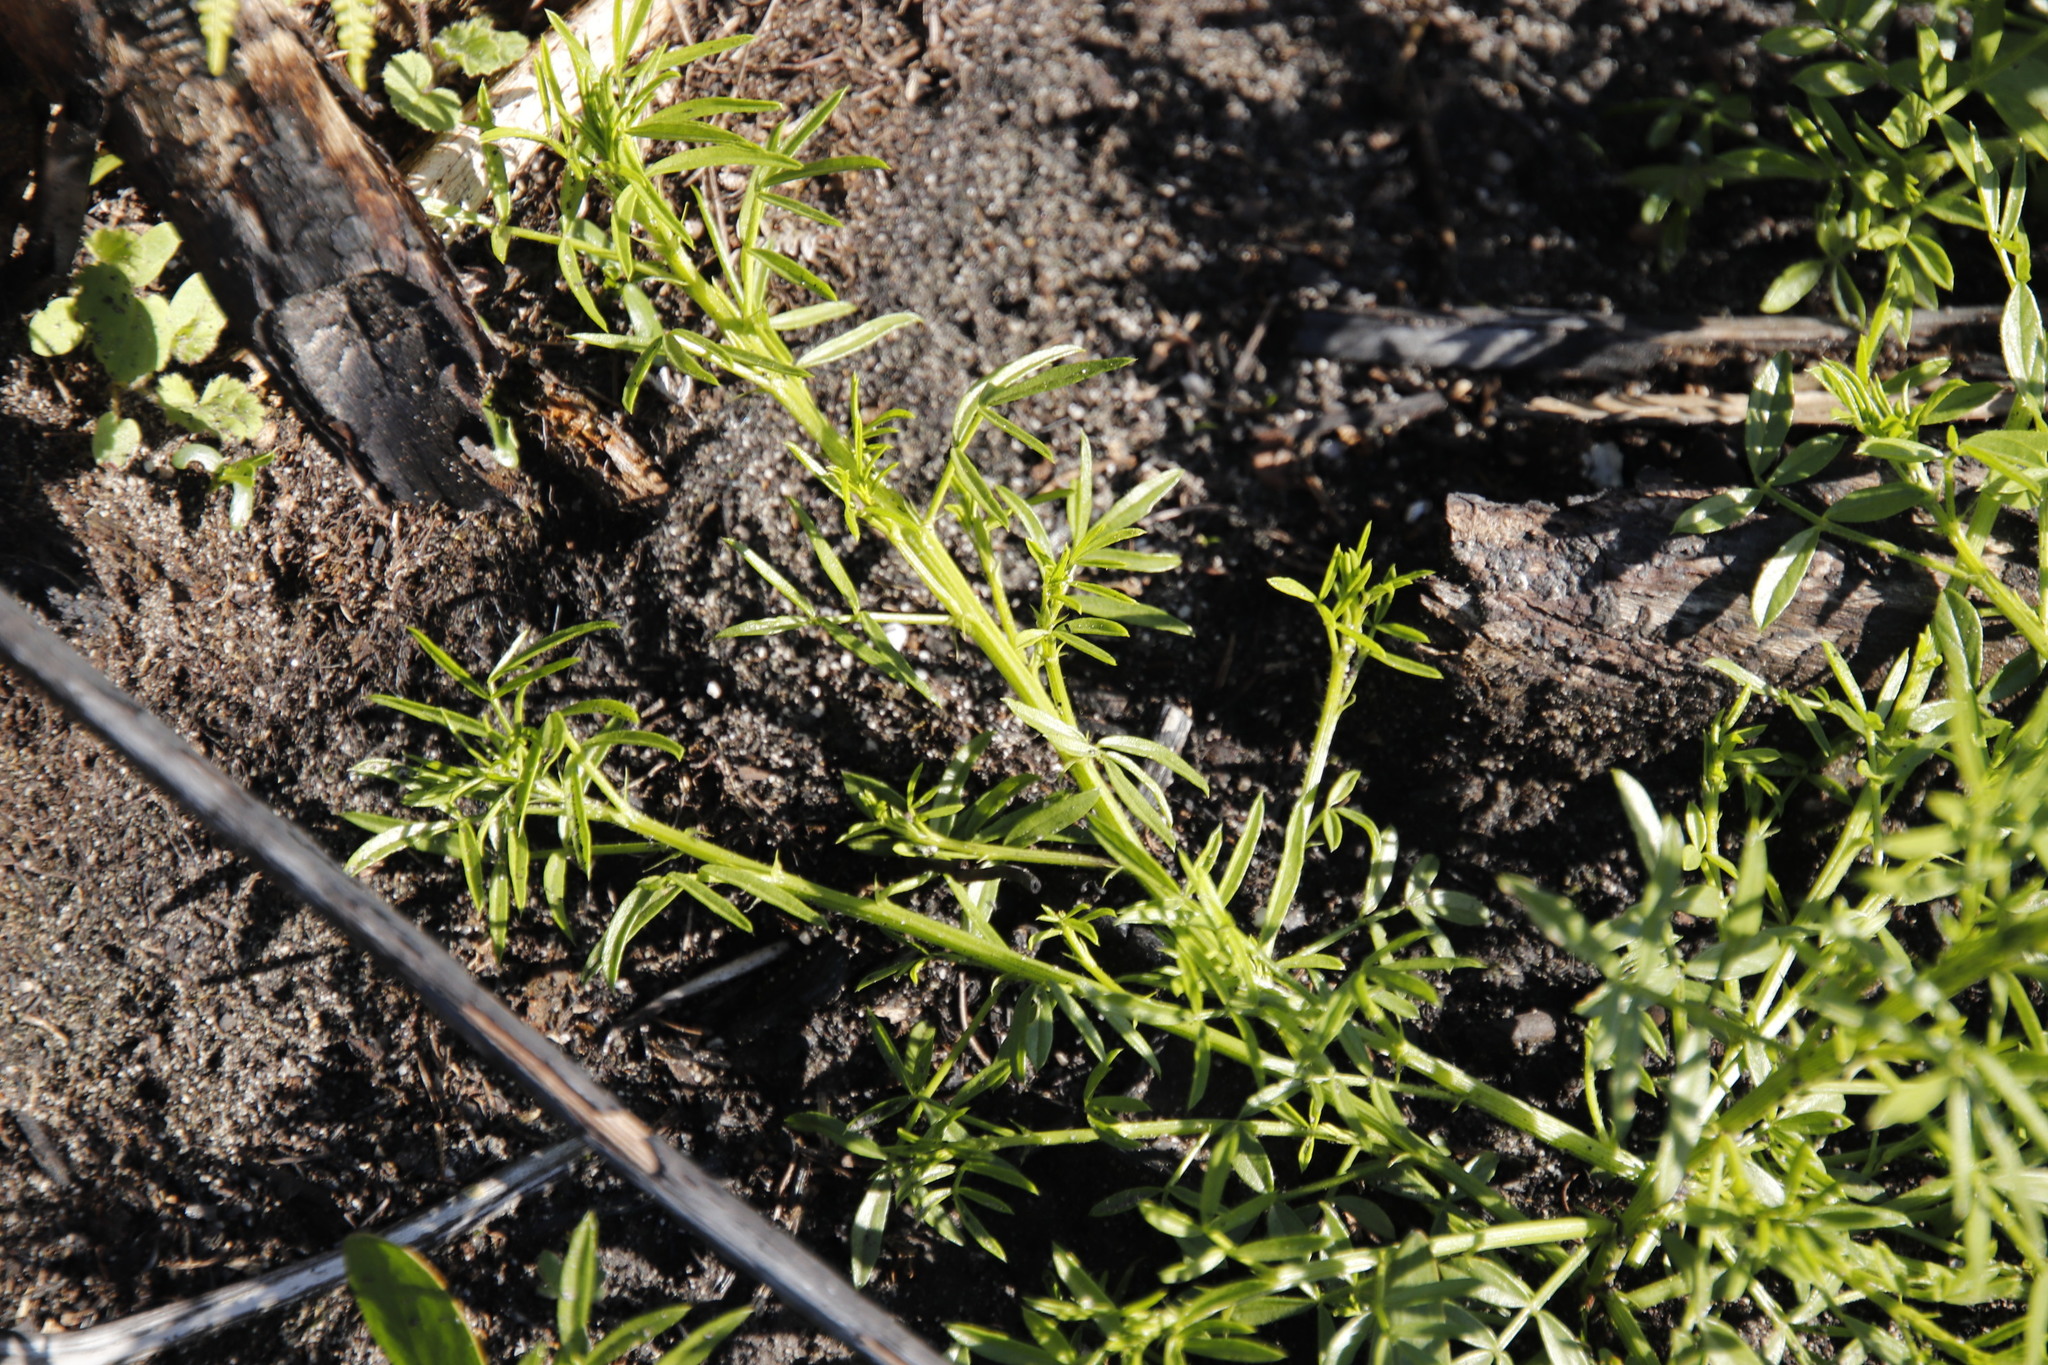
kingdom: Plantae
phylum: Tracheophyta
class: Magnoliopsida
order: Fabales
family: Fabaceae
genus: Psoralea
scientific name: Psoralea pinnata
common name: African scurfpea
